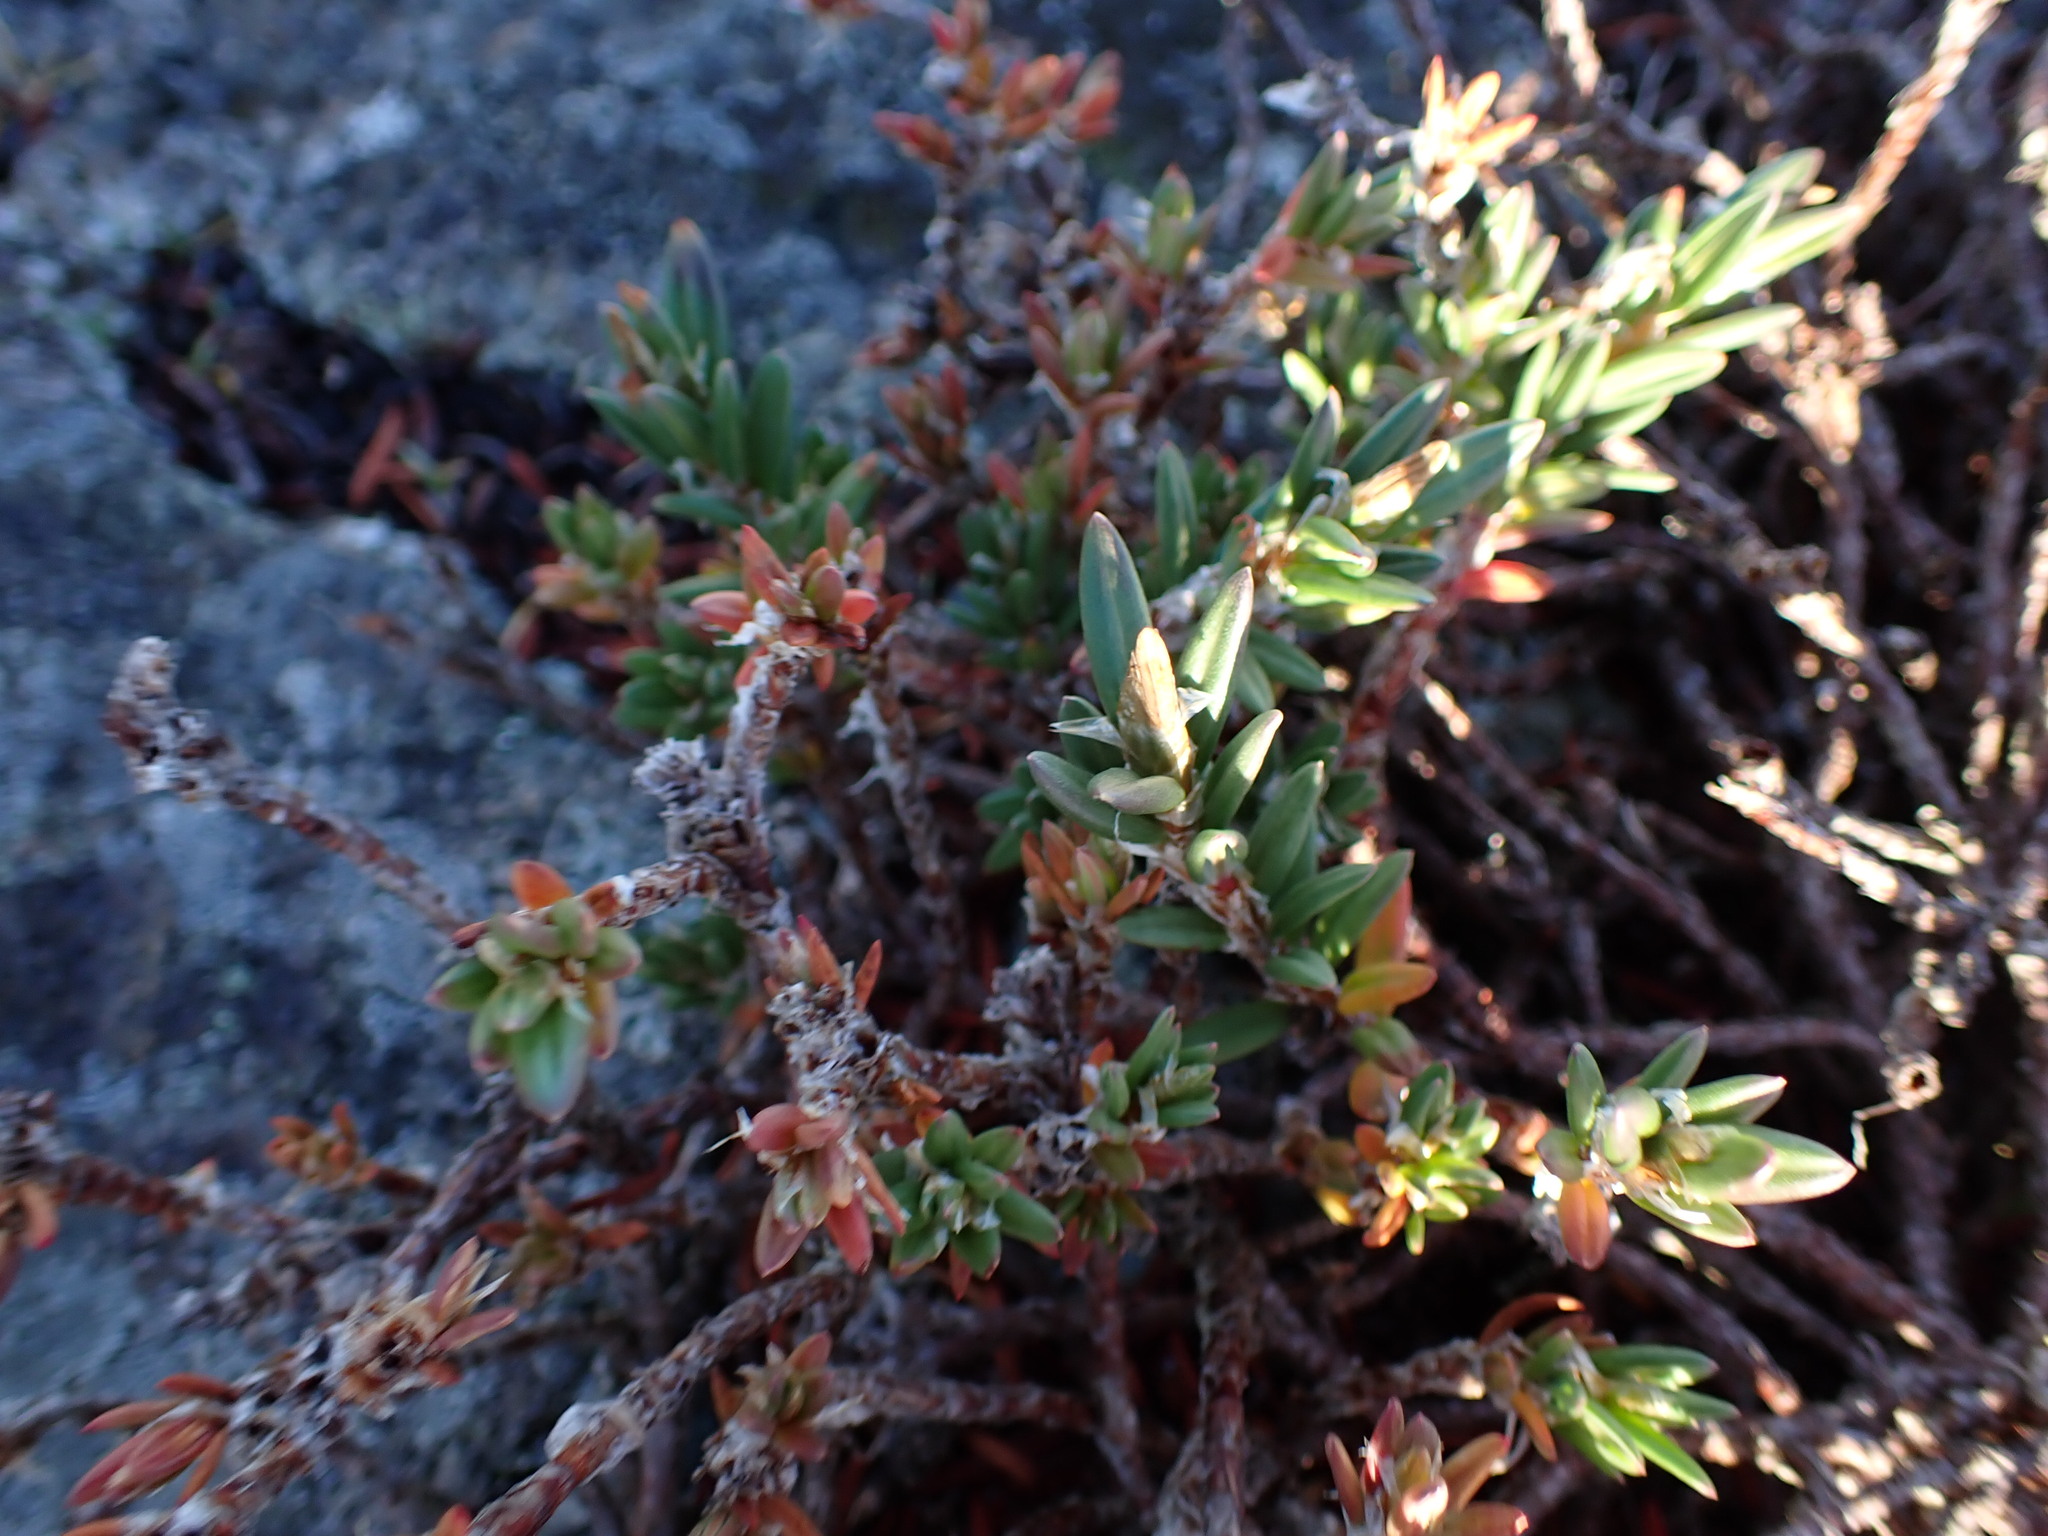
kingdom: Plantae
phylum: Tracheophyta
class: Magnoliopsida
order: Caryophyllales
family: Polygonaceae
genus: Polygonum
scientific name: Polygonum paronychia
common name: Dune knotweed
